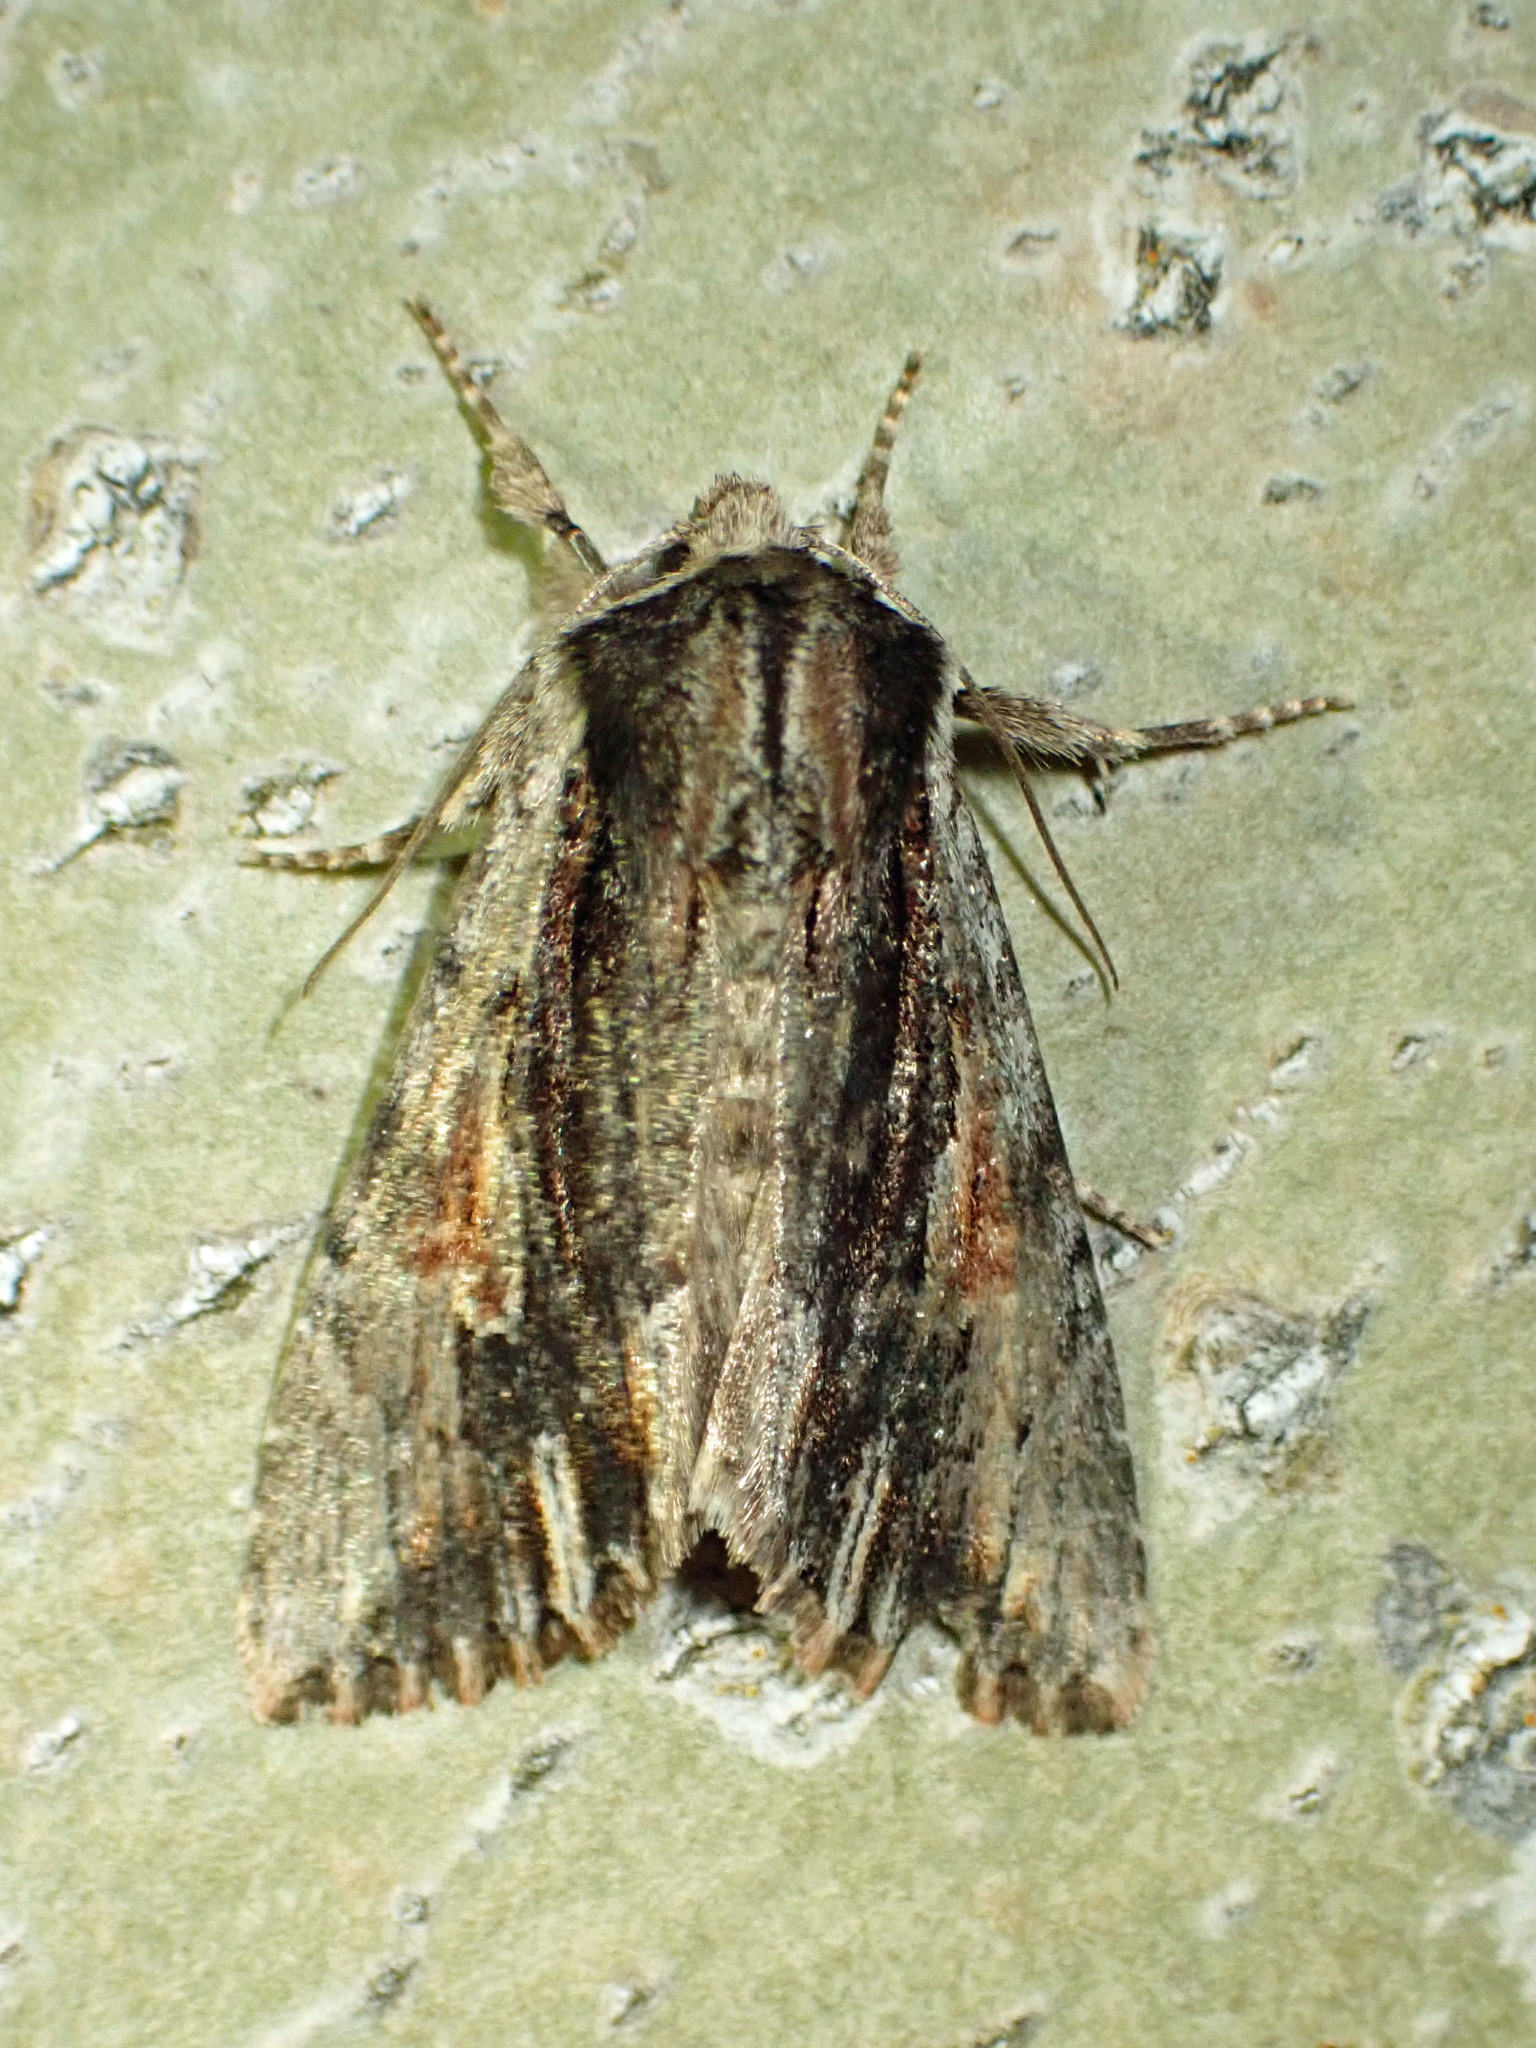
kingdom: Animalia
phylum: Arthropoda
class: Insecta
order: Lepidoptera
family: Noctuidae
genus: Achatia
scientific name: Achatia evicta
